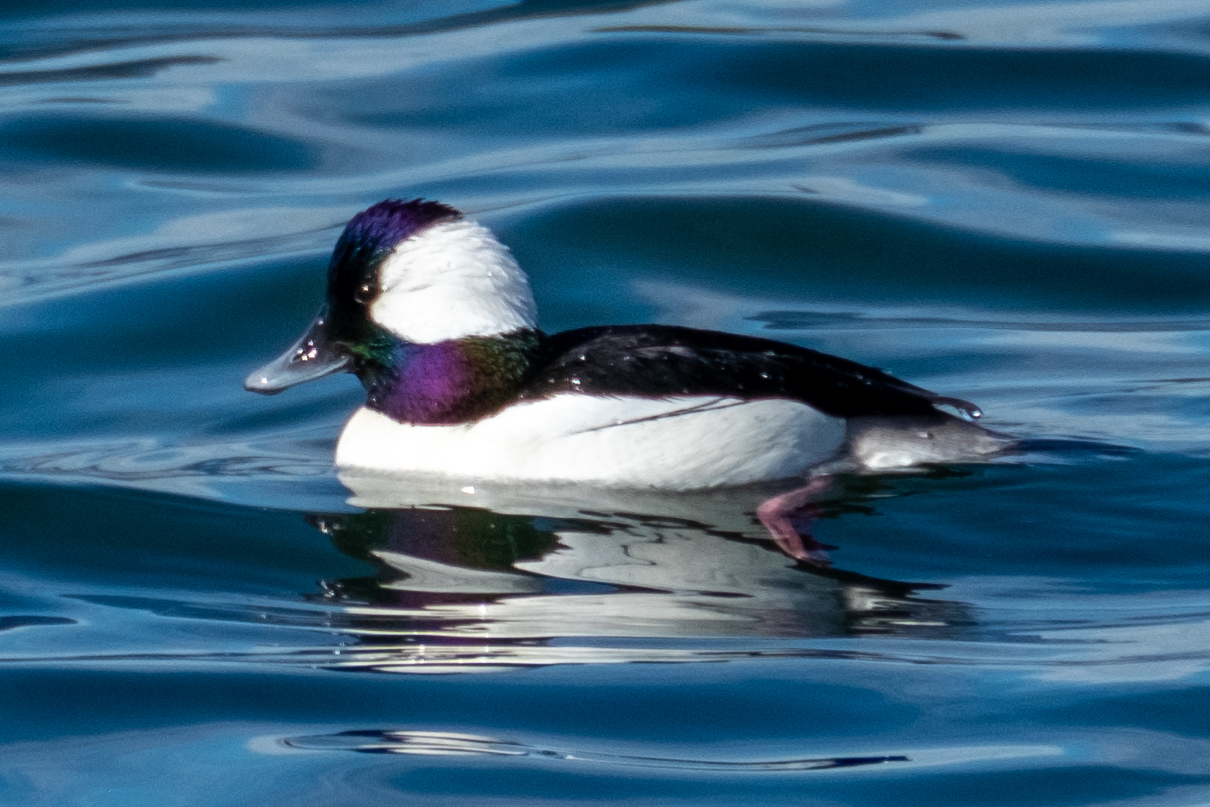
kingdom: Animalia
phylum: Chordata
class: Aves
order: Anseriformes
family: Anatidae
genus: Bucephala
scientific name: Bucephala albeola
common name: Bufflehead
